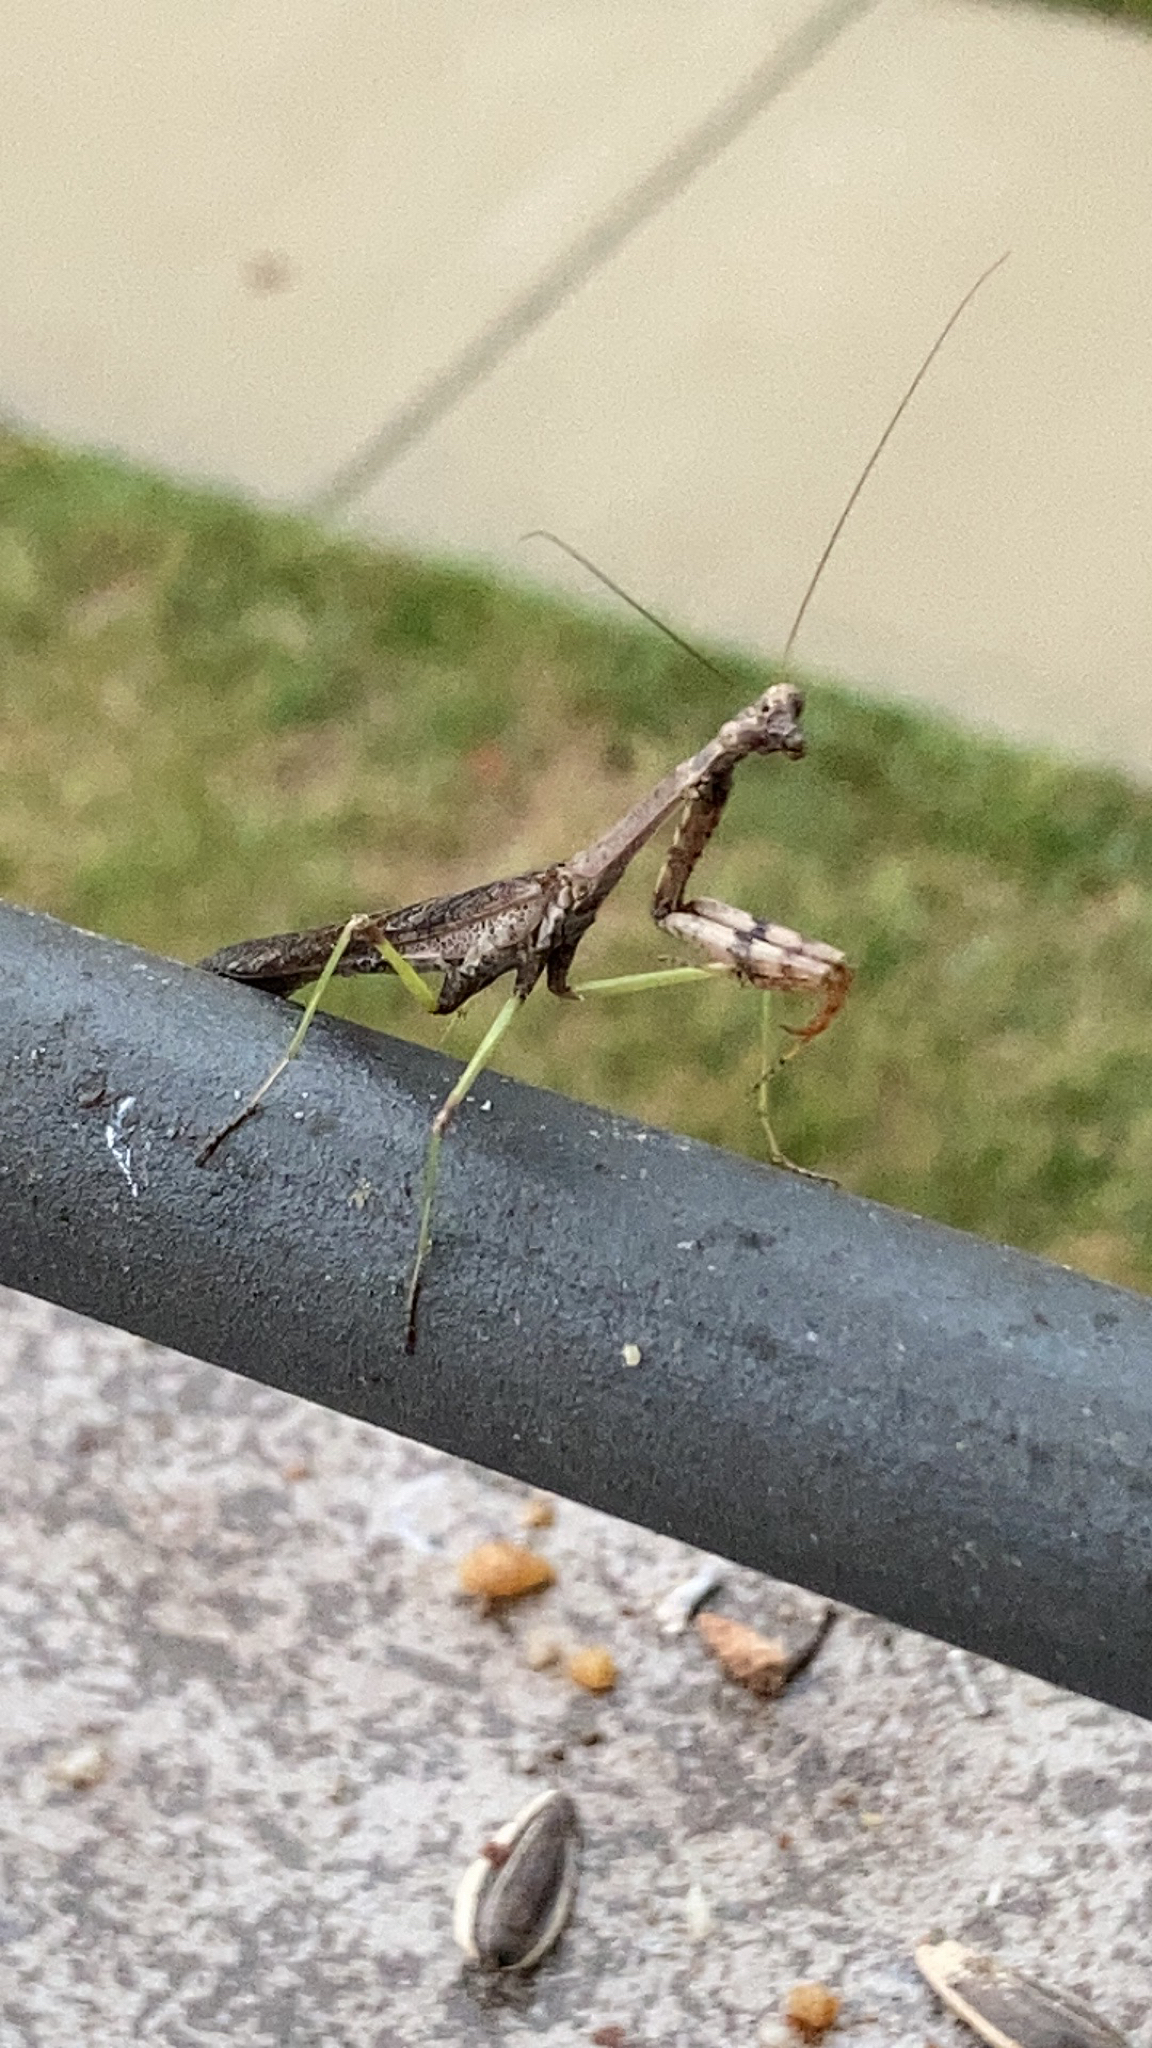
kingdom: Animalia
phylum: Arthropoda
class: Insecta
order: Mantodea
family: Mantidae
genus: Stagmomantis
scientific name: Stagmomantis carolina
